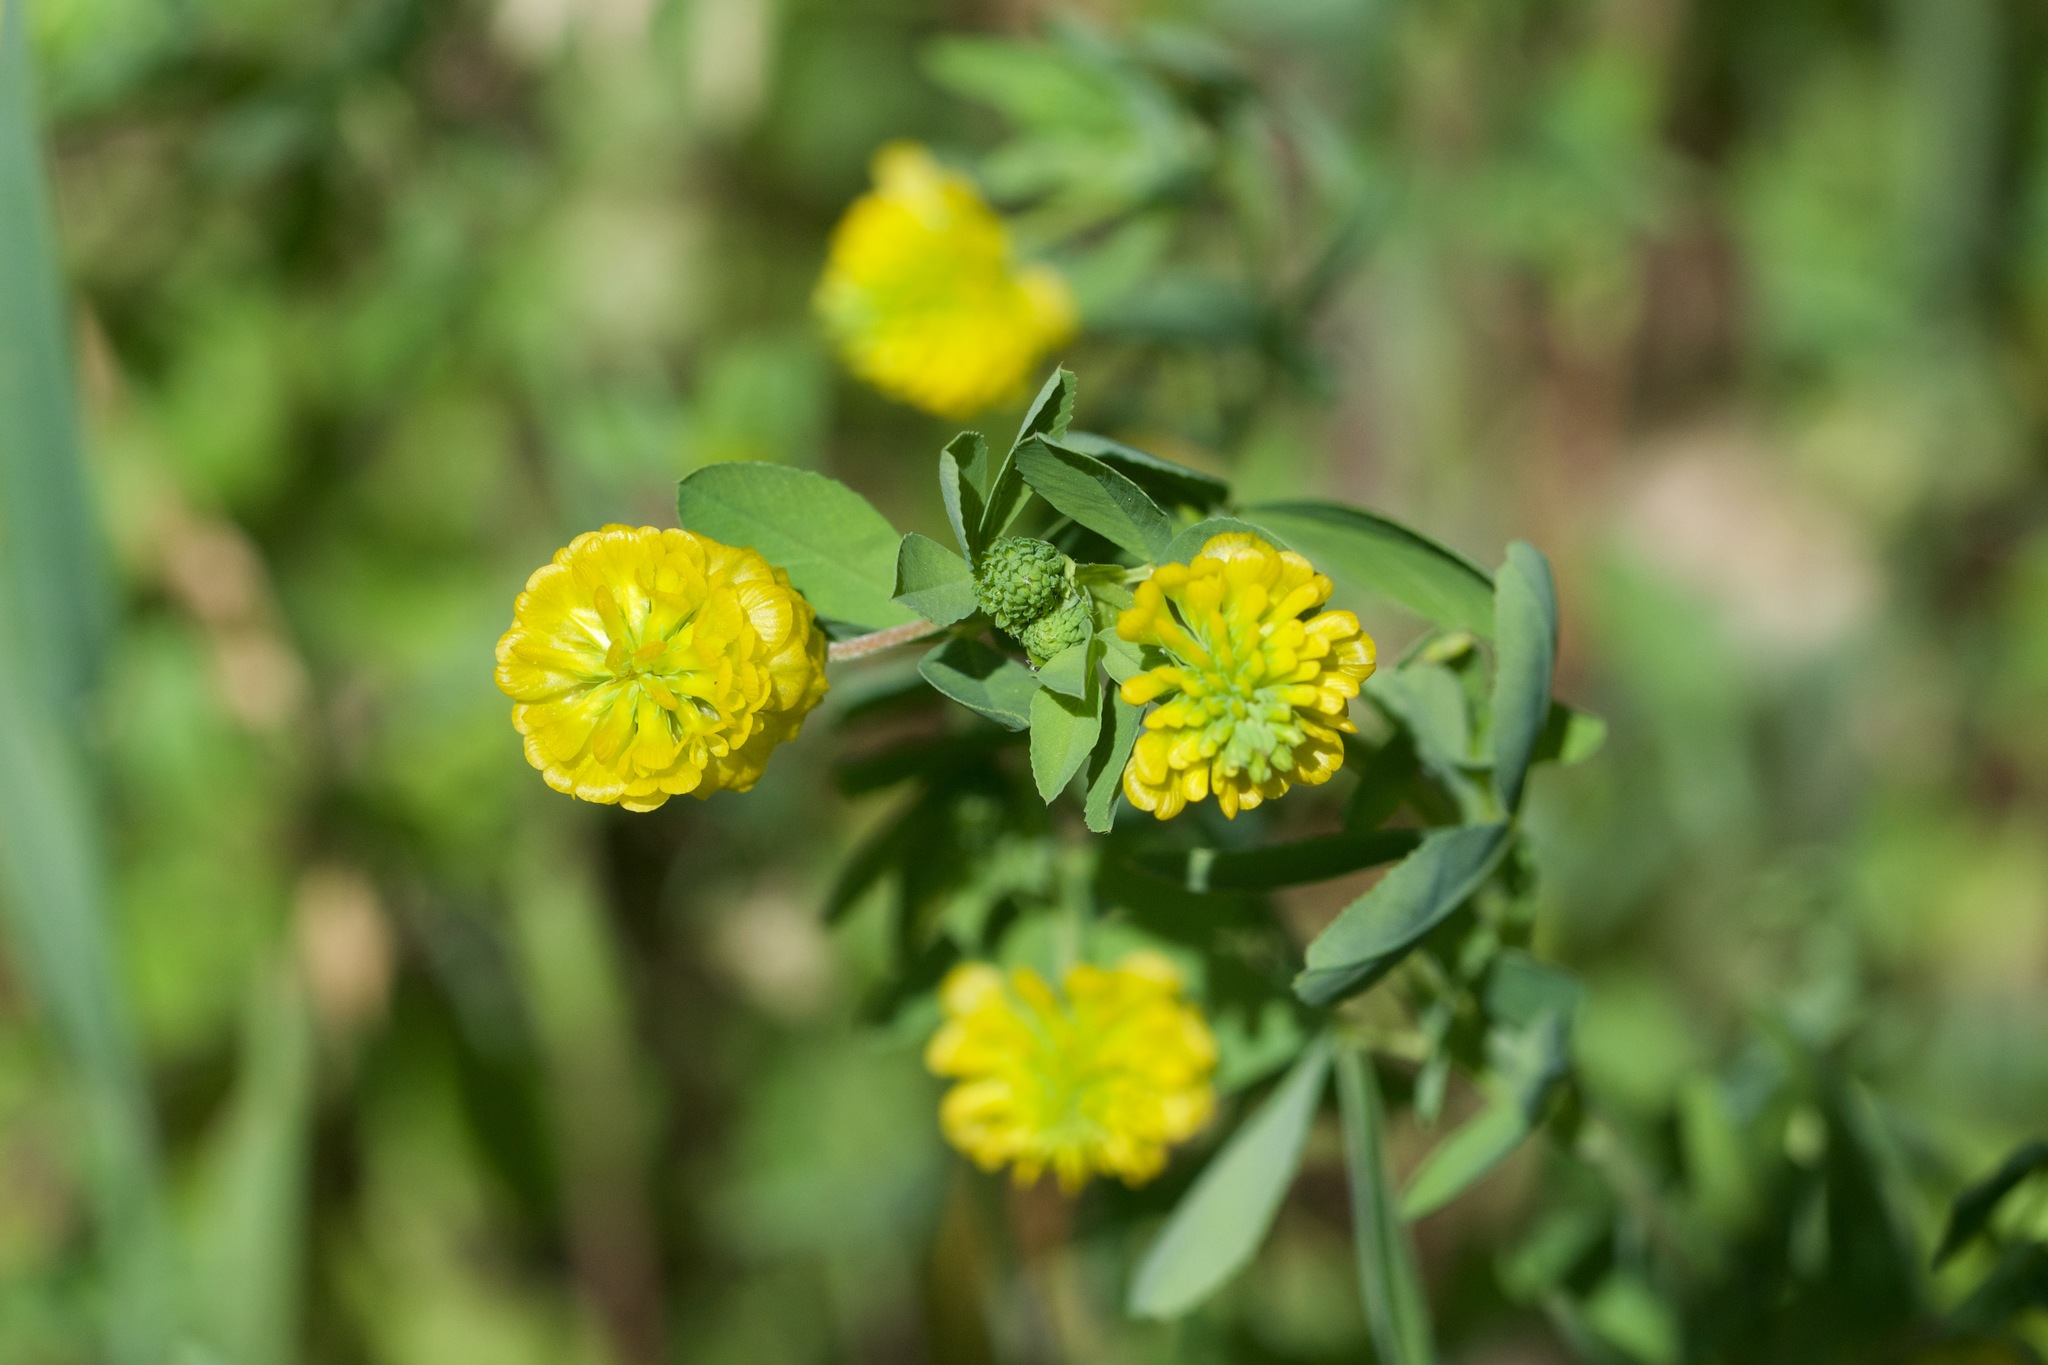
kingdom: Plantae
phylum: Tracheophyta
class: Magnoliopsida
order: Fabales
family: Fabaceae
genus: Trifolium
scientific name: Trifolium aureum
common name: Golden clover
